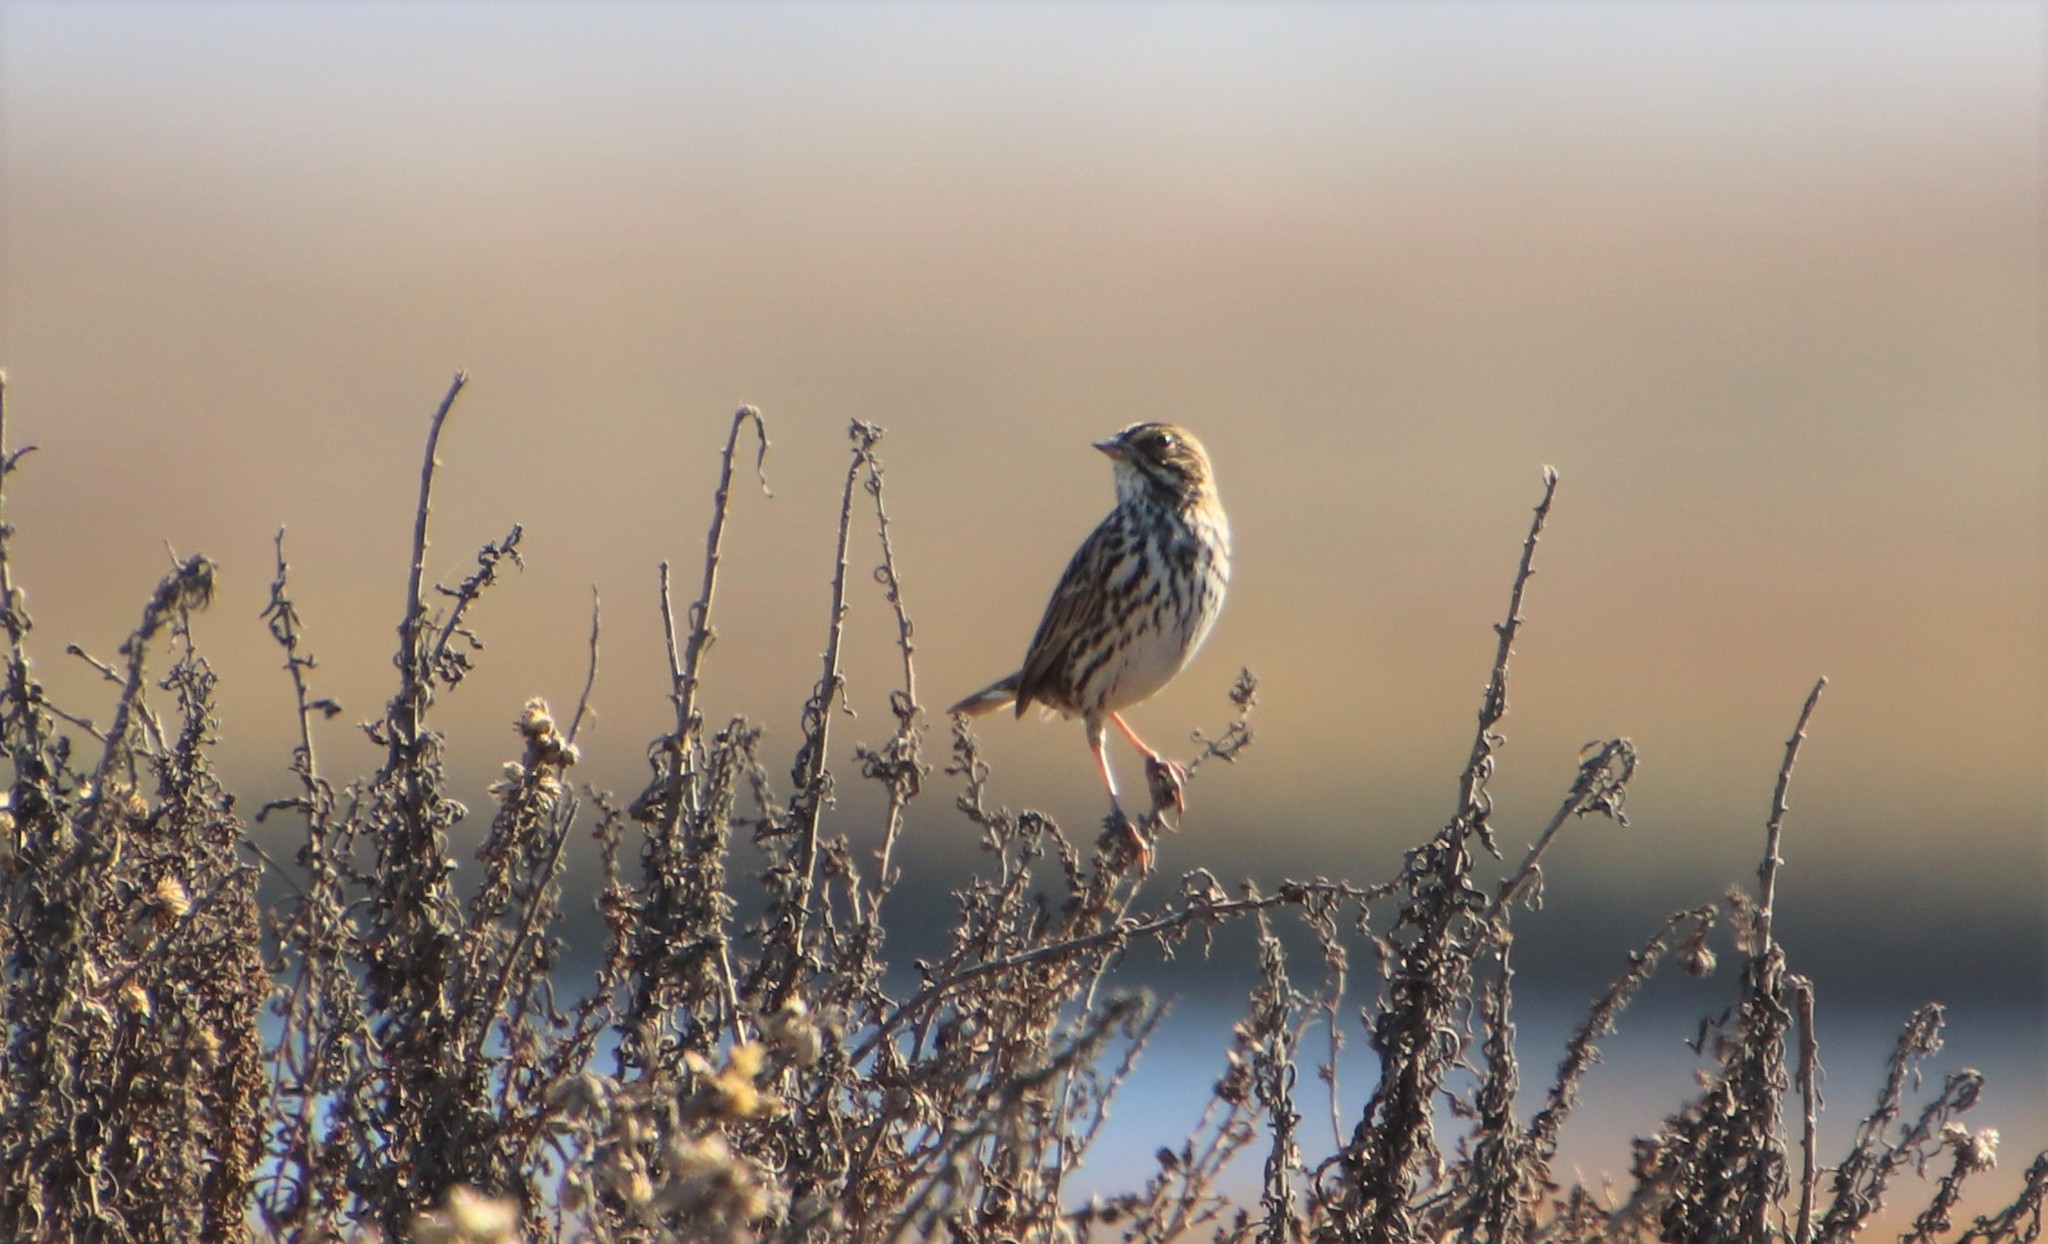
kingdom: Animalia
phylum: Chordata
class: Aves
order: Passeriformes
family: Passerellidae
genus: Passerculus
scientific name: Passerculus sandwichensis
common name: Savannah sparrow
